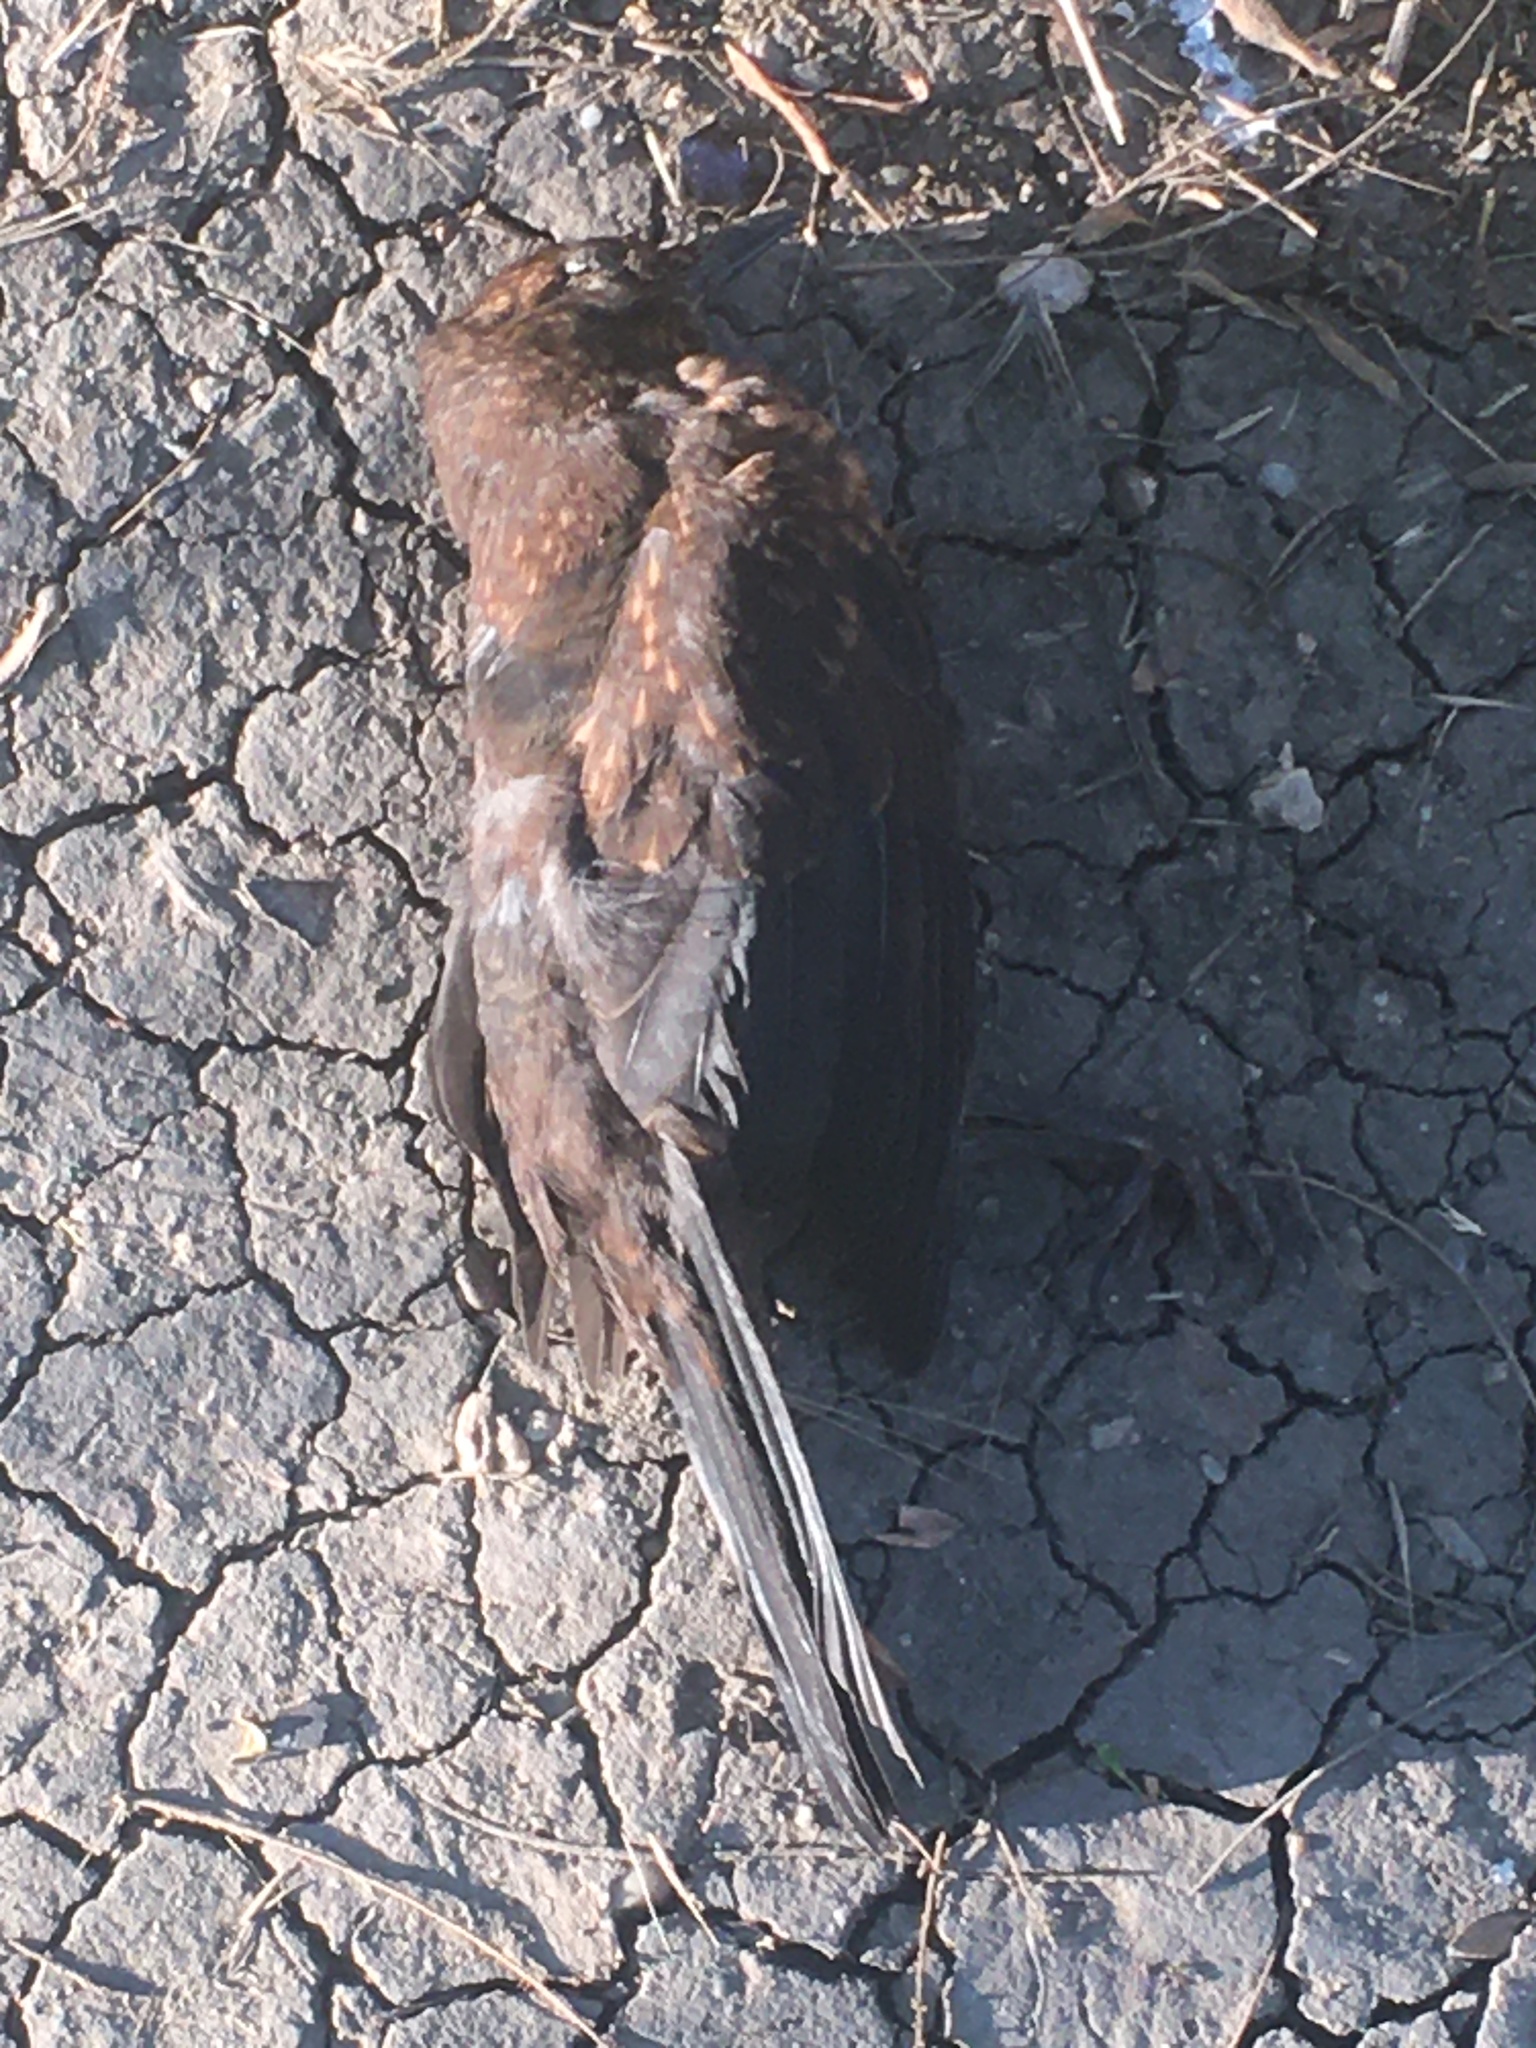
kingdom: Animalia
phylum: Chordata
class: Aves
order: Passeriformes
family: Turdidae
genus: Turdus
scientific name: Turdus merula
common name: Common blackbird
